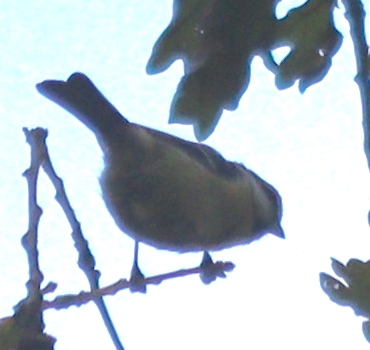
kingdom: Animalia
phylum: Chordata
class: Aves
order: Passeriformes
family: Paridae
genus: Cyanistes
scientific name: Cyanistes caeruleus
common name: Eurasian blue tit
